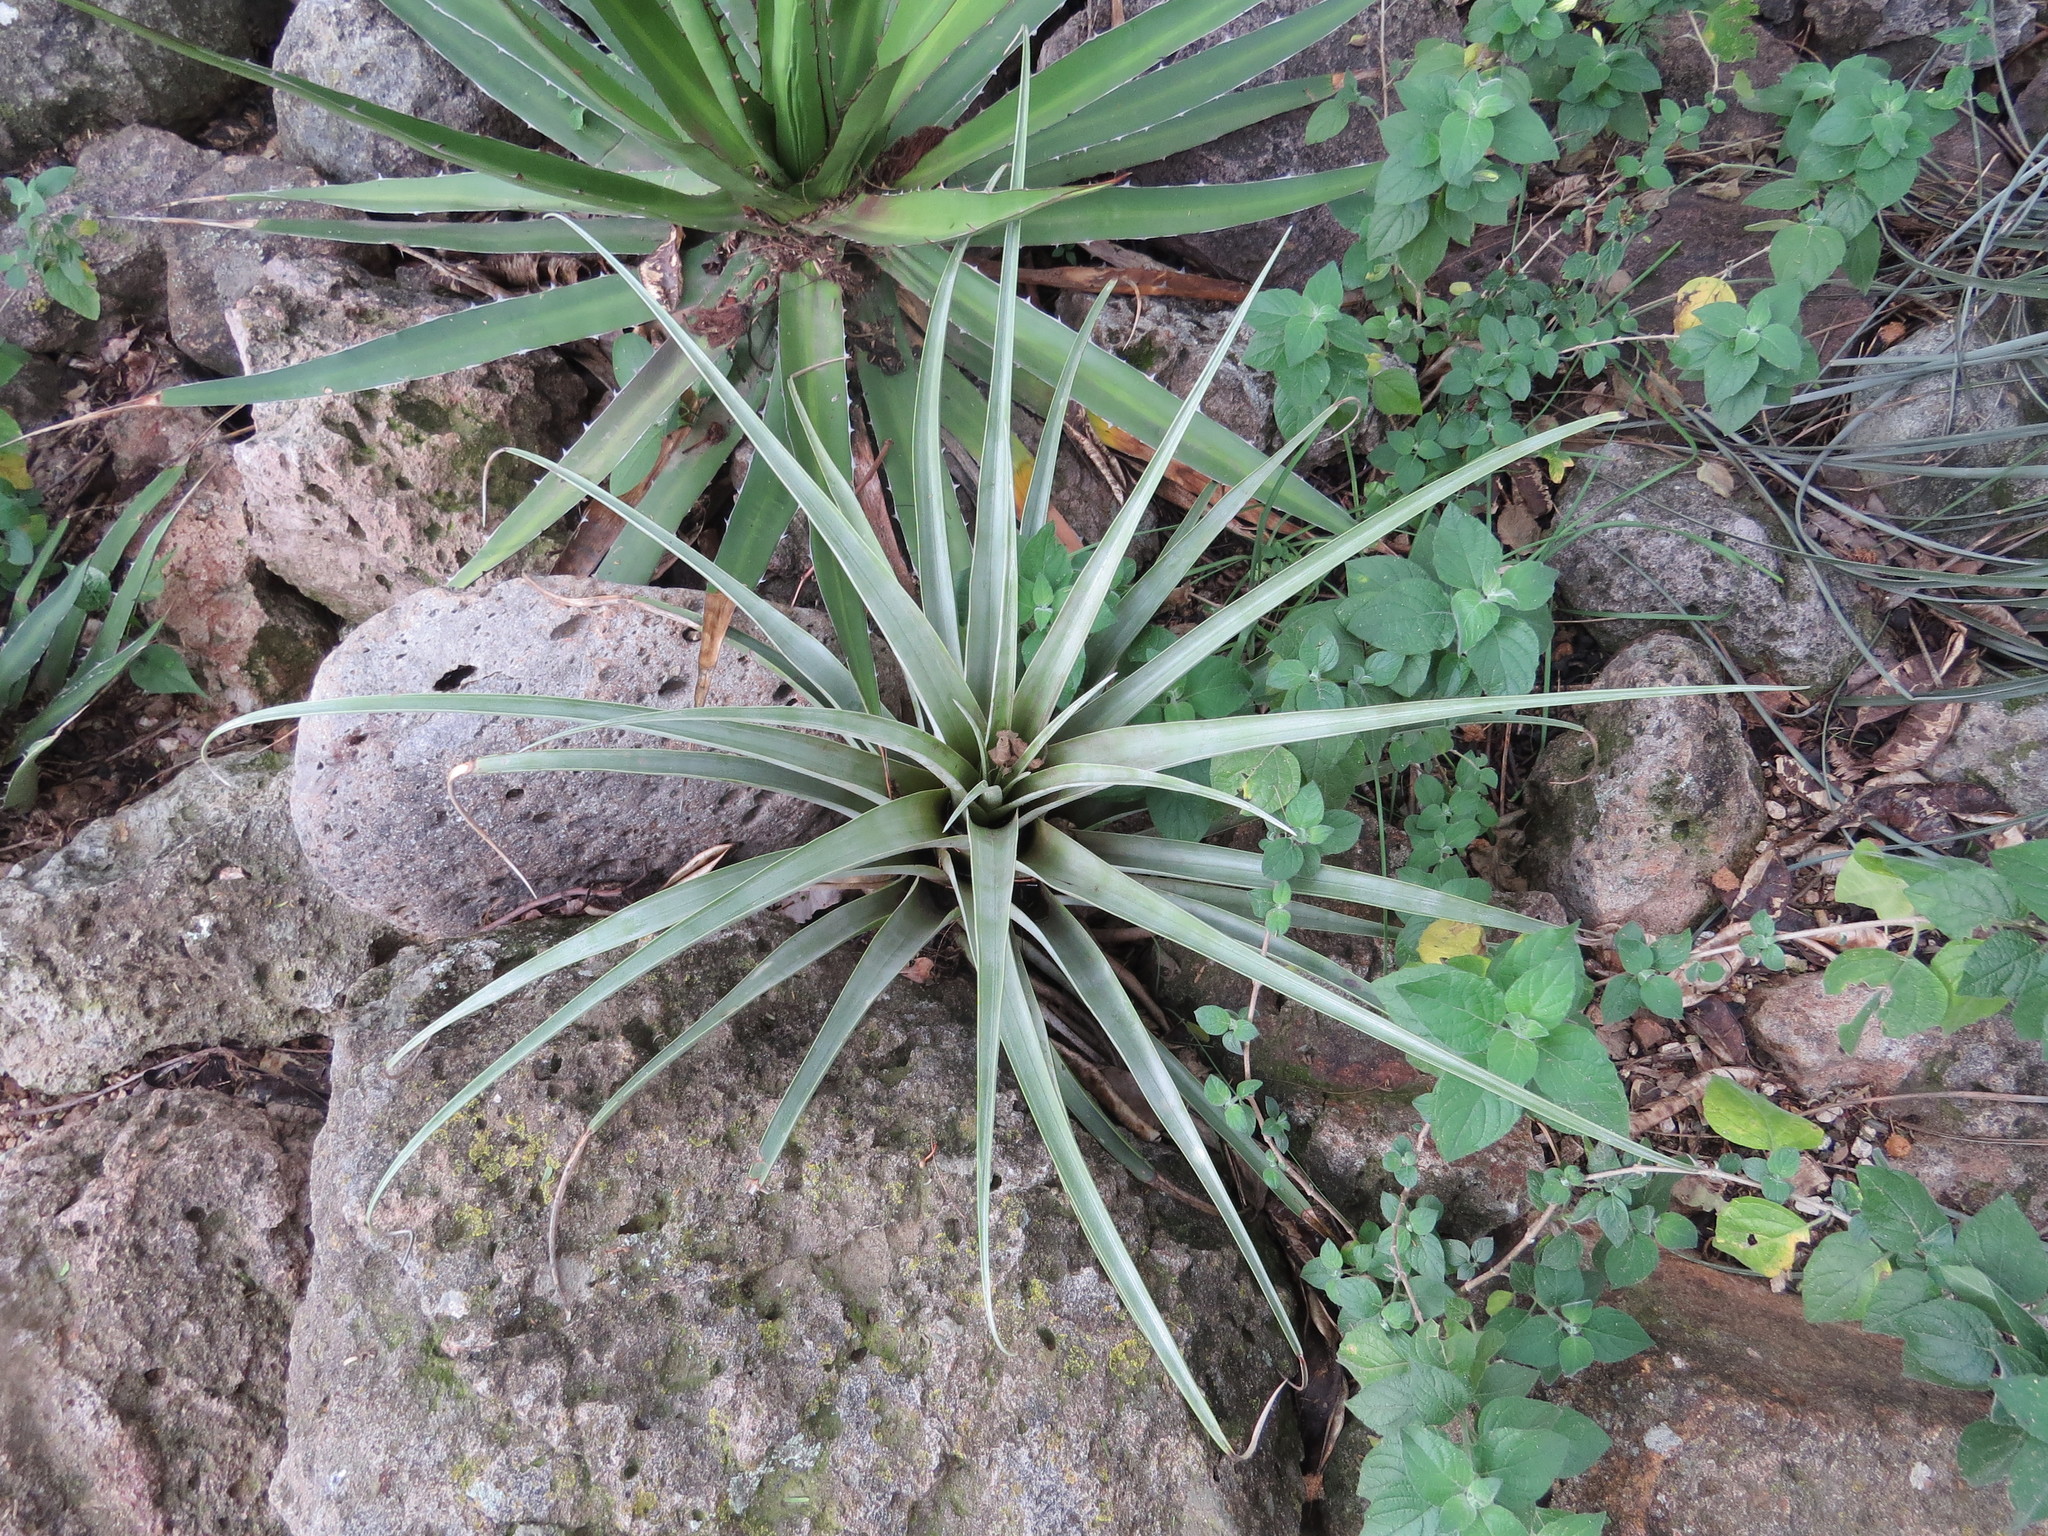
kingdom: Plantae
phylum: Tracheophyta
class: Liliopsida
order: Asparagales
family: Asparagaceae
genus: Agave
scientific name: Agave kerchovei
